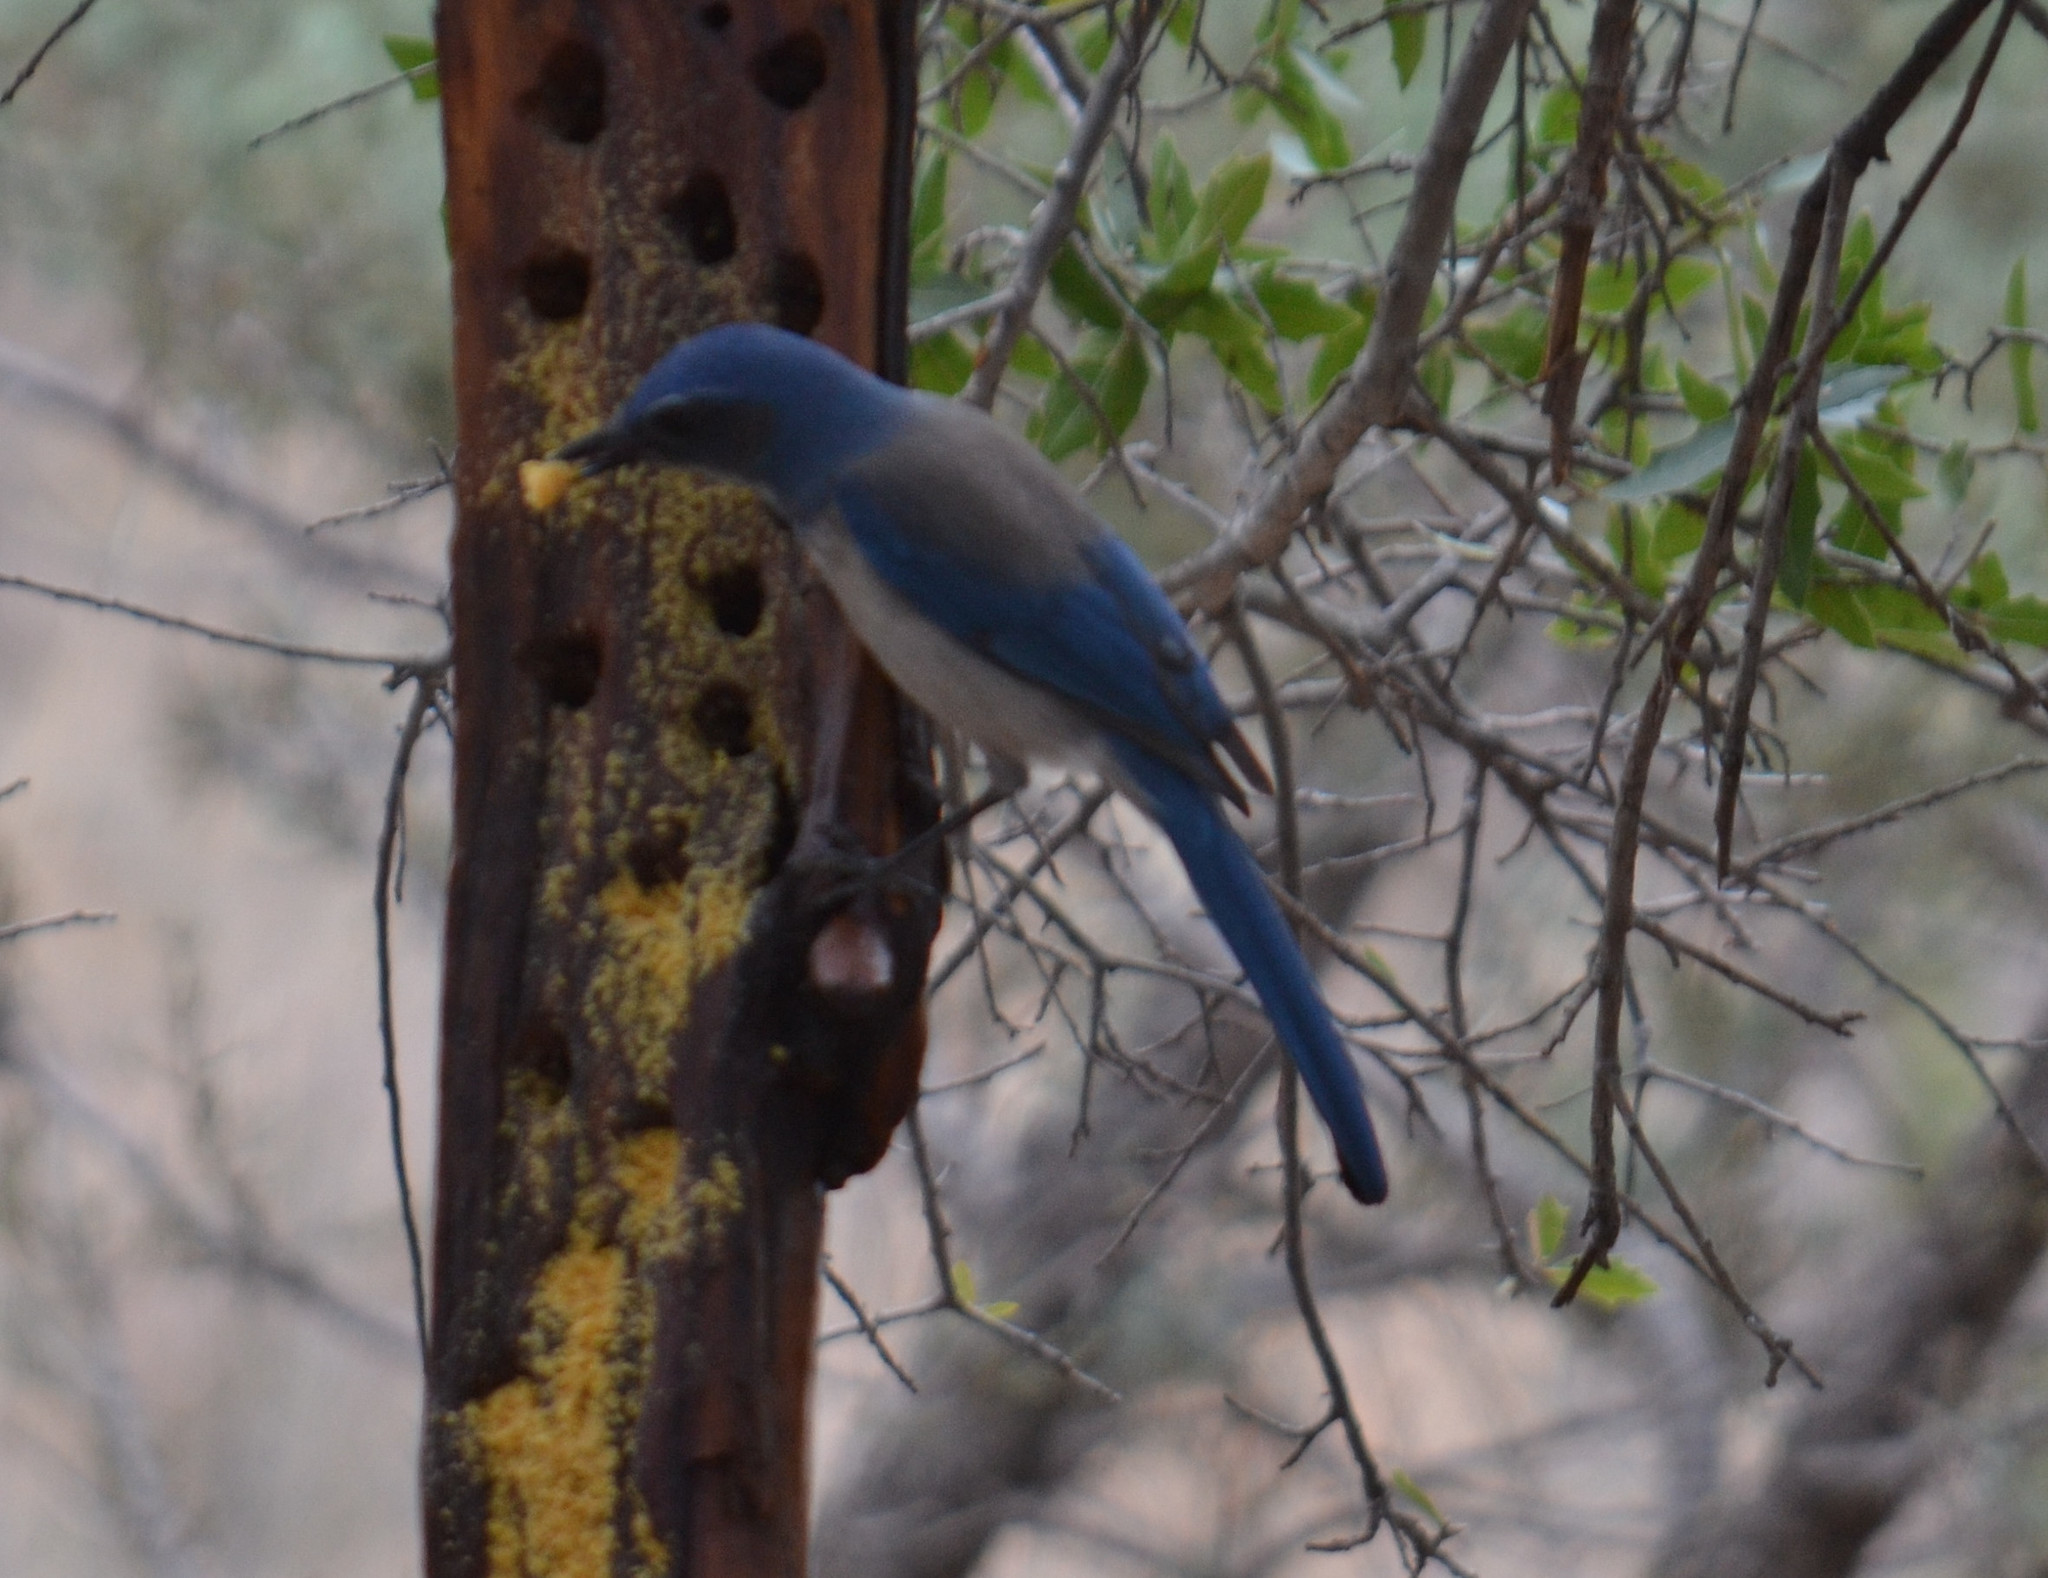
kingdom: Animalia
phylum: Chordata
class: Aves
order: Passeriformes
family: Corvidae
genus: Aphelocoma
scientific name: Aphelocoma woodhouseii
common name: Woodhouse's scrub-jay
